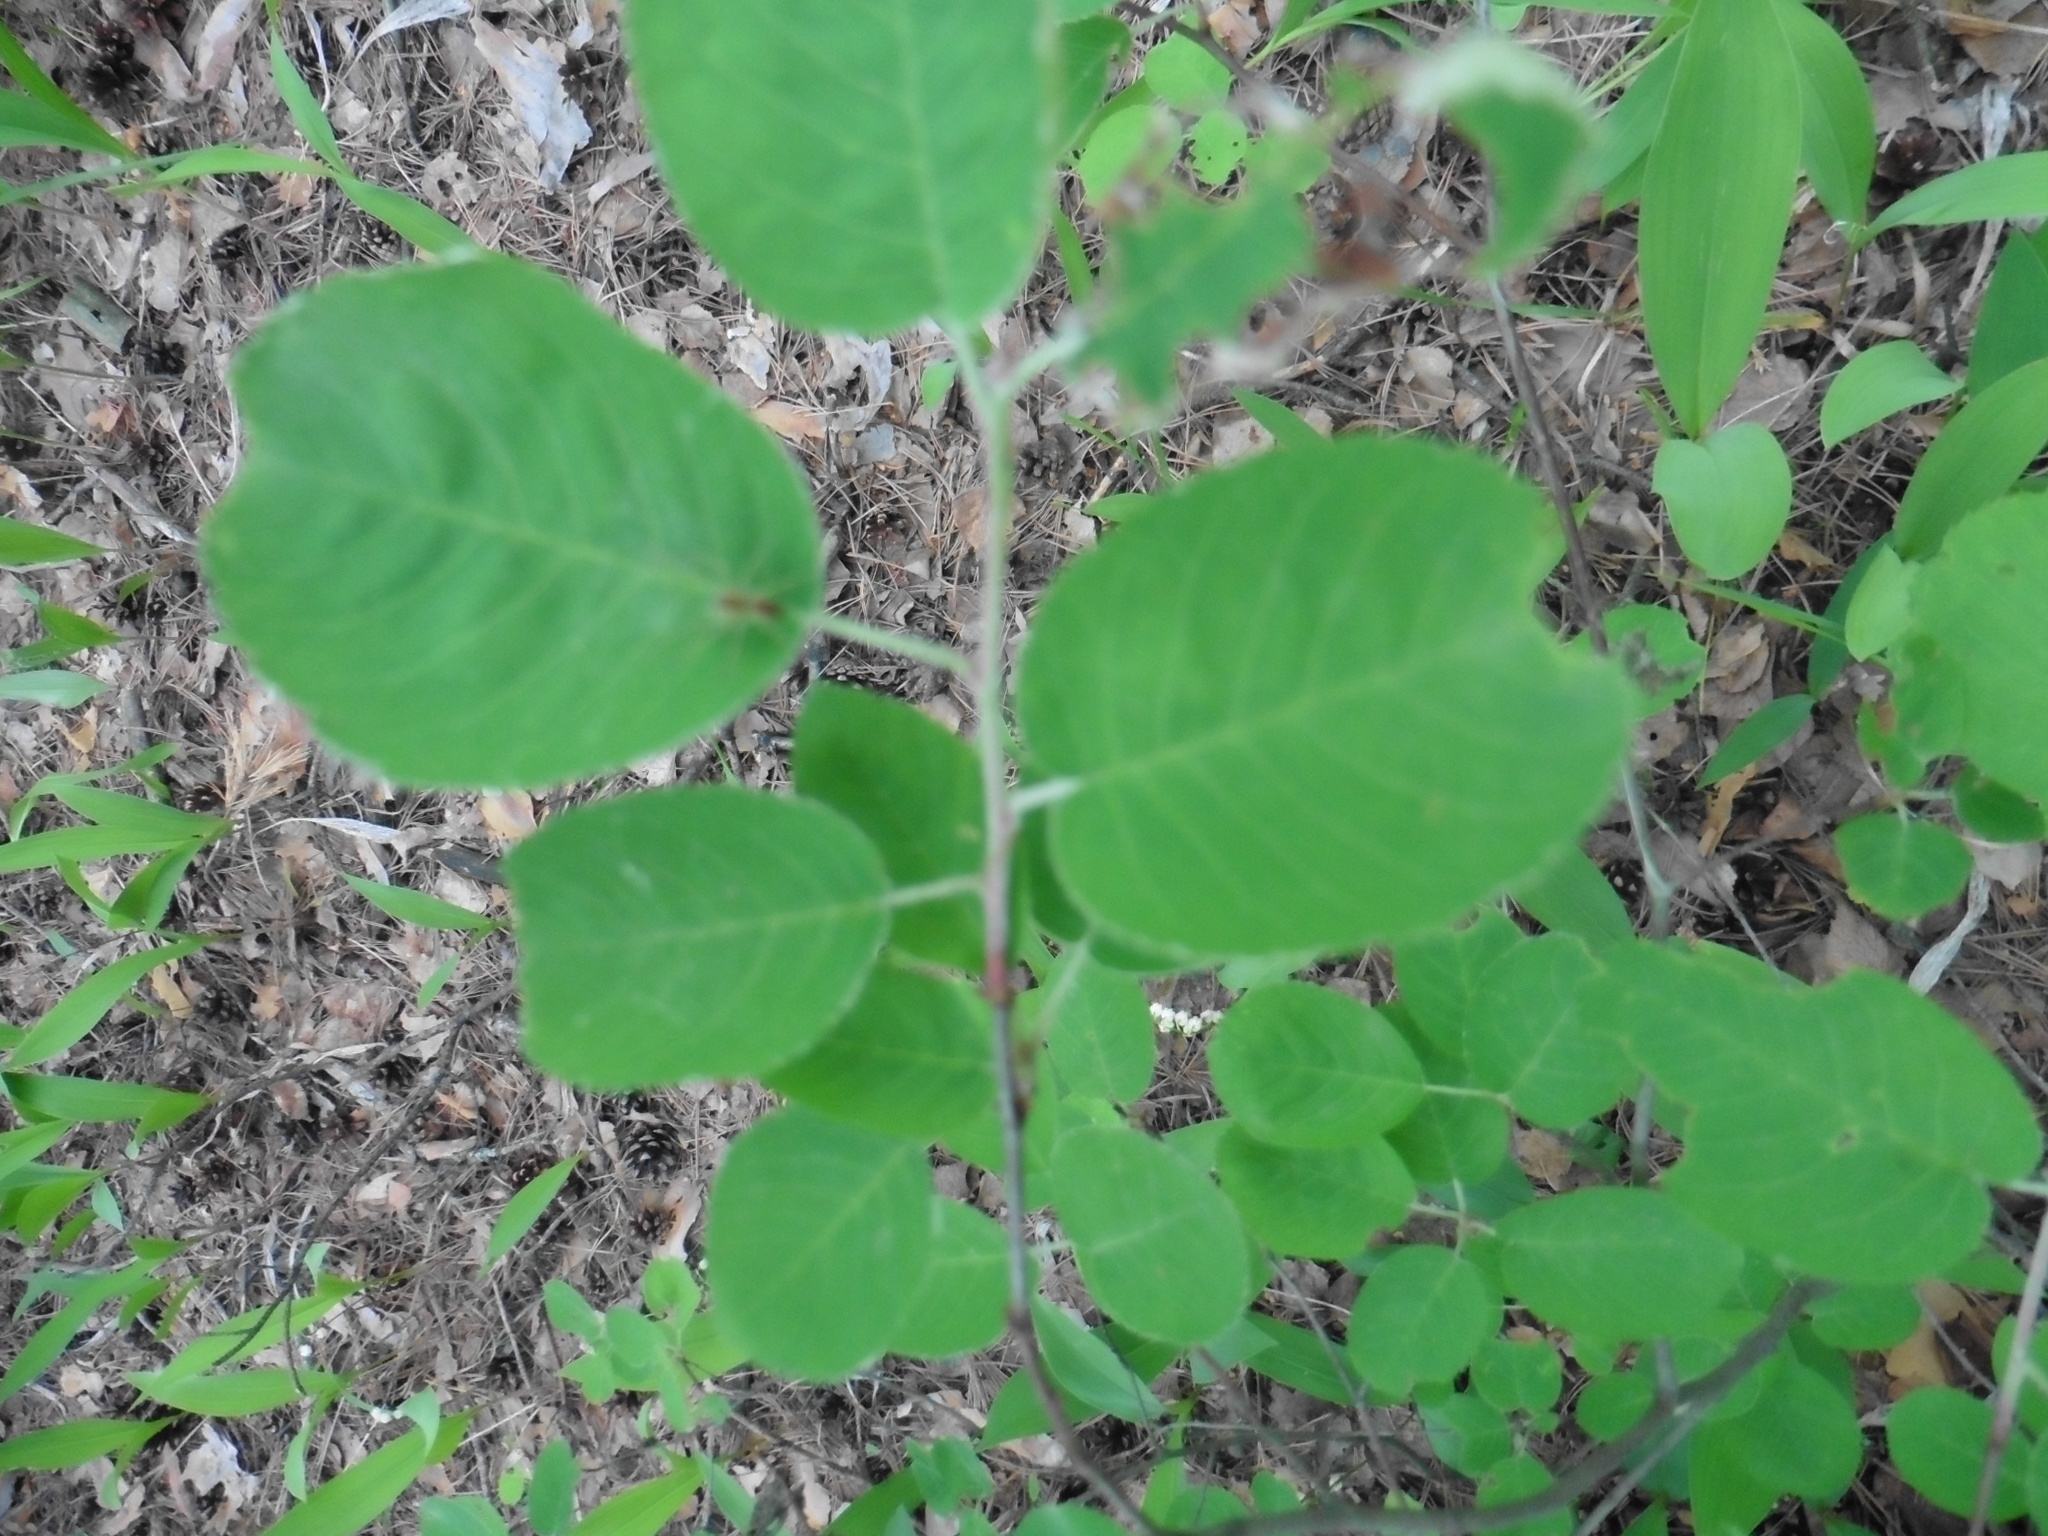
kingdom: Plantae
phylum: Tracheophyta
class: Magnoliopsida
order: Rosales
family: Rosaceae
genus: Amelanchier
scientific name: Amelanchier
